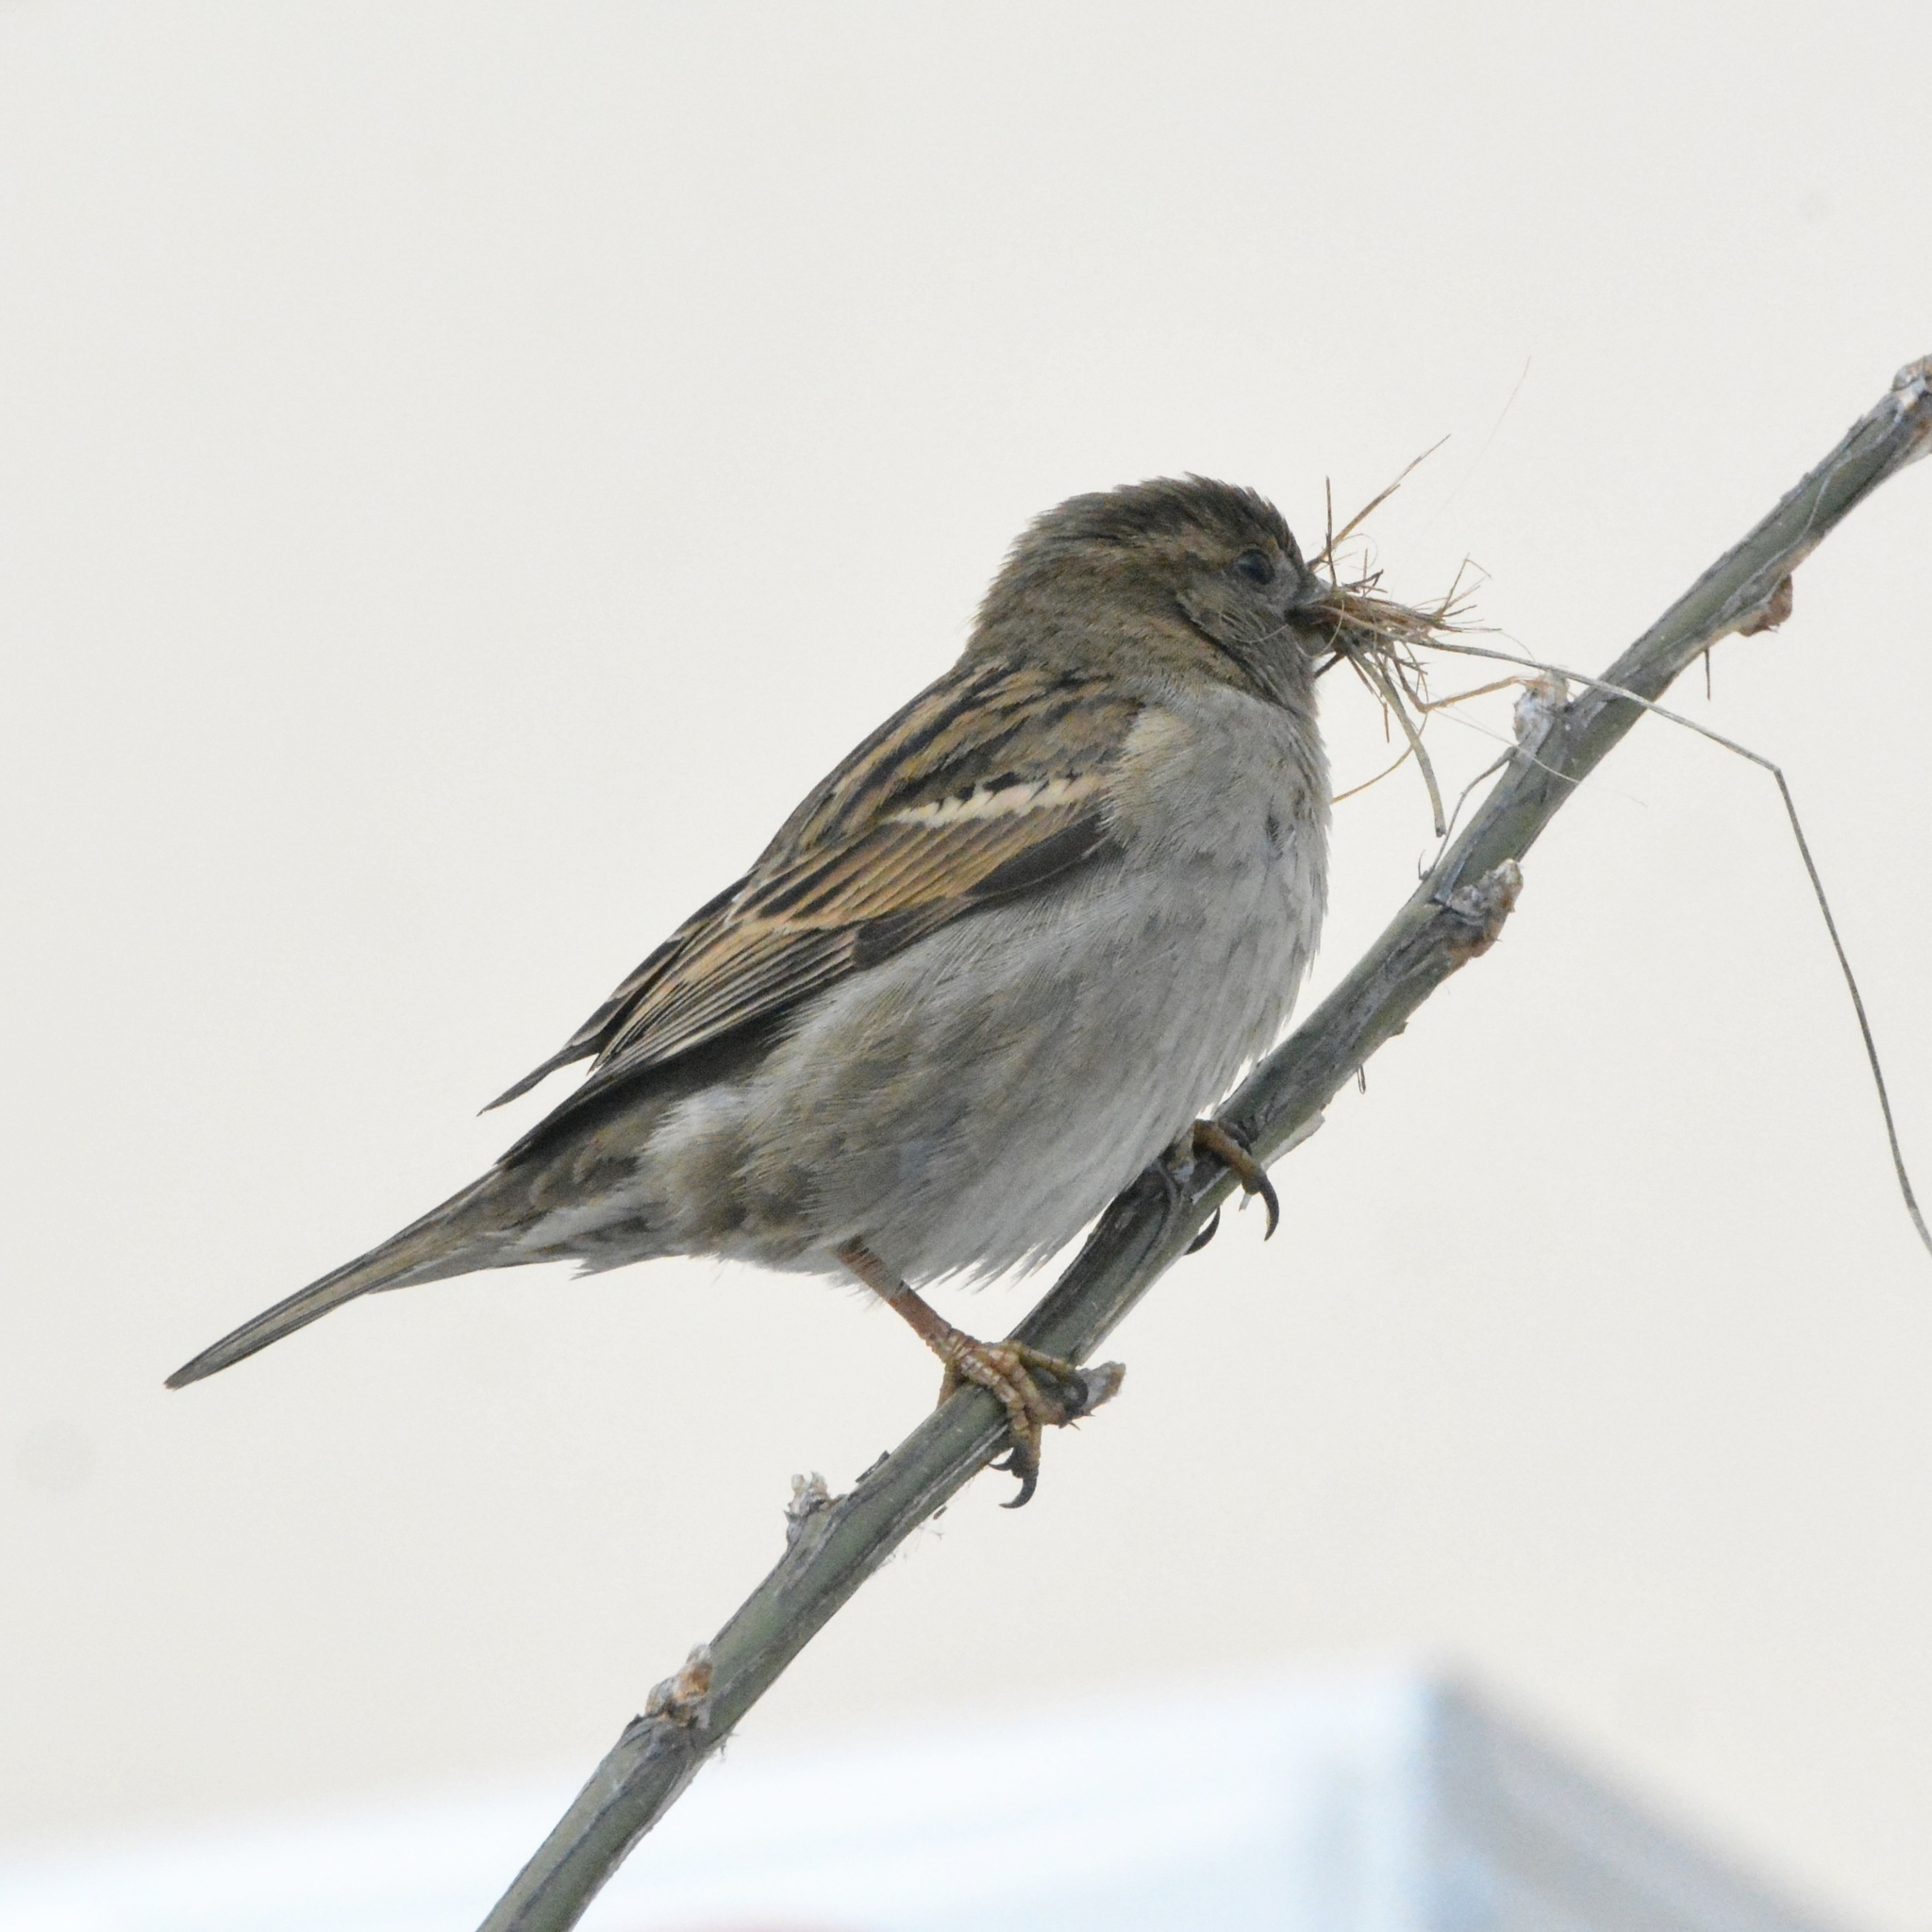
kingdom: Animalia
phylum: Chordata
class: Aves
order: Passeriformes
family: Passeridae
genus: Passer
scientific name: Passer domesticus
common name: House sparrow
